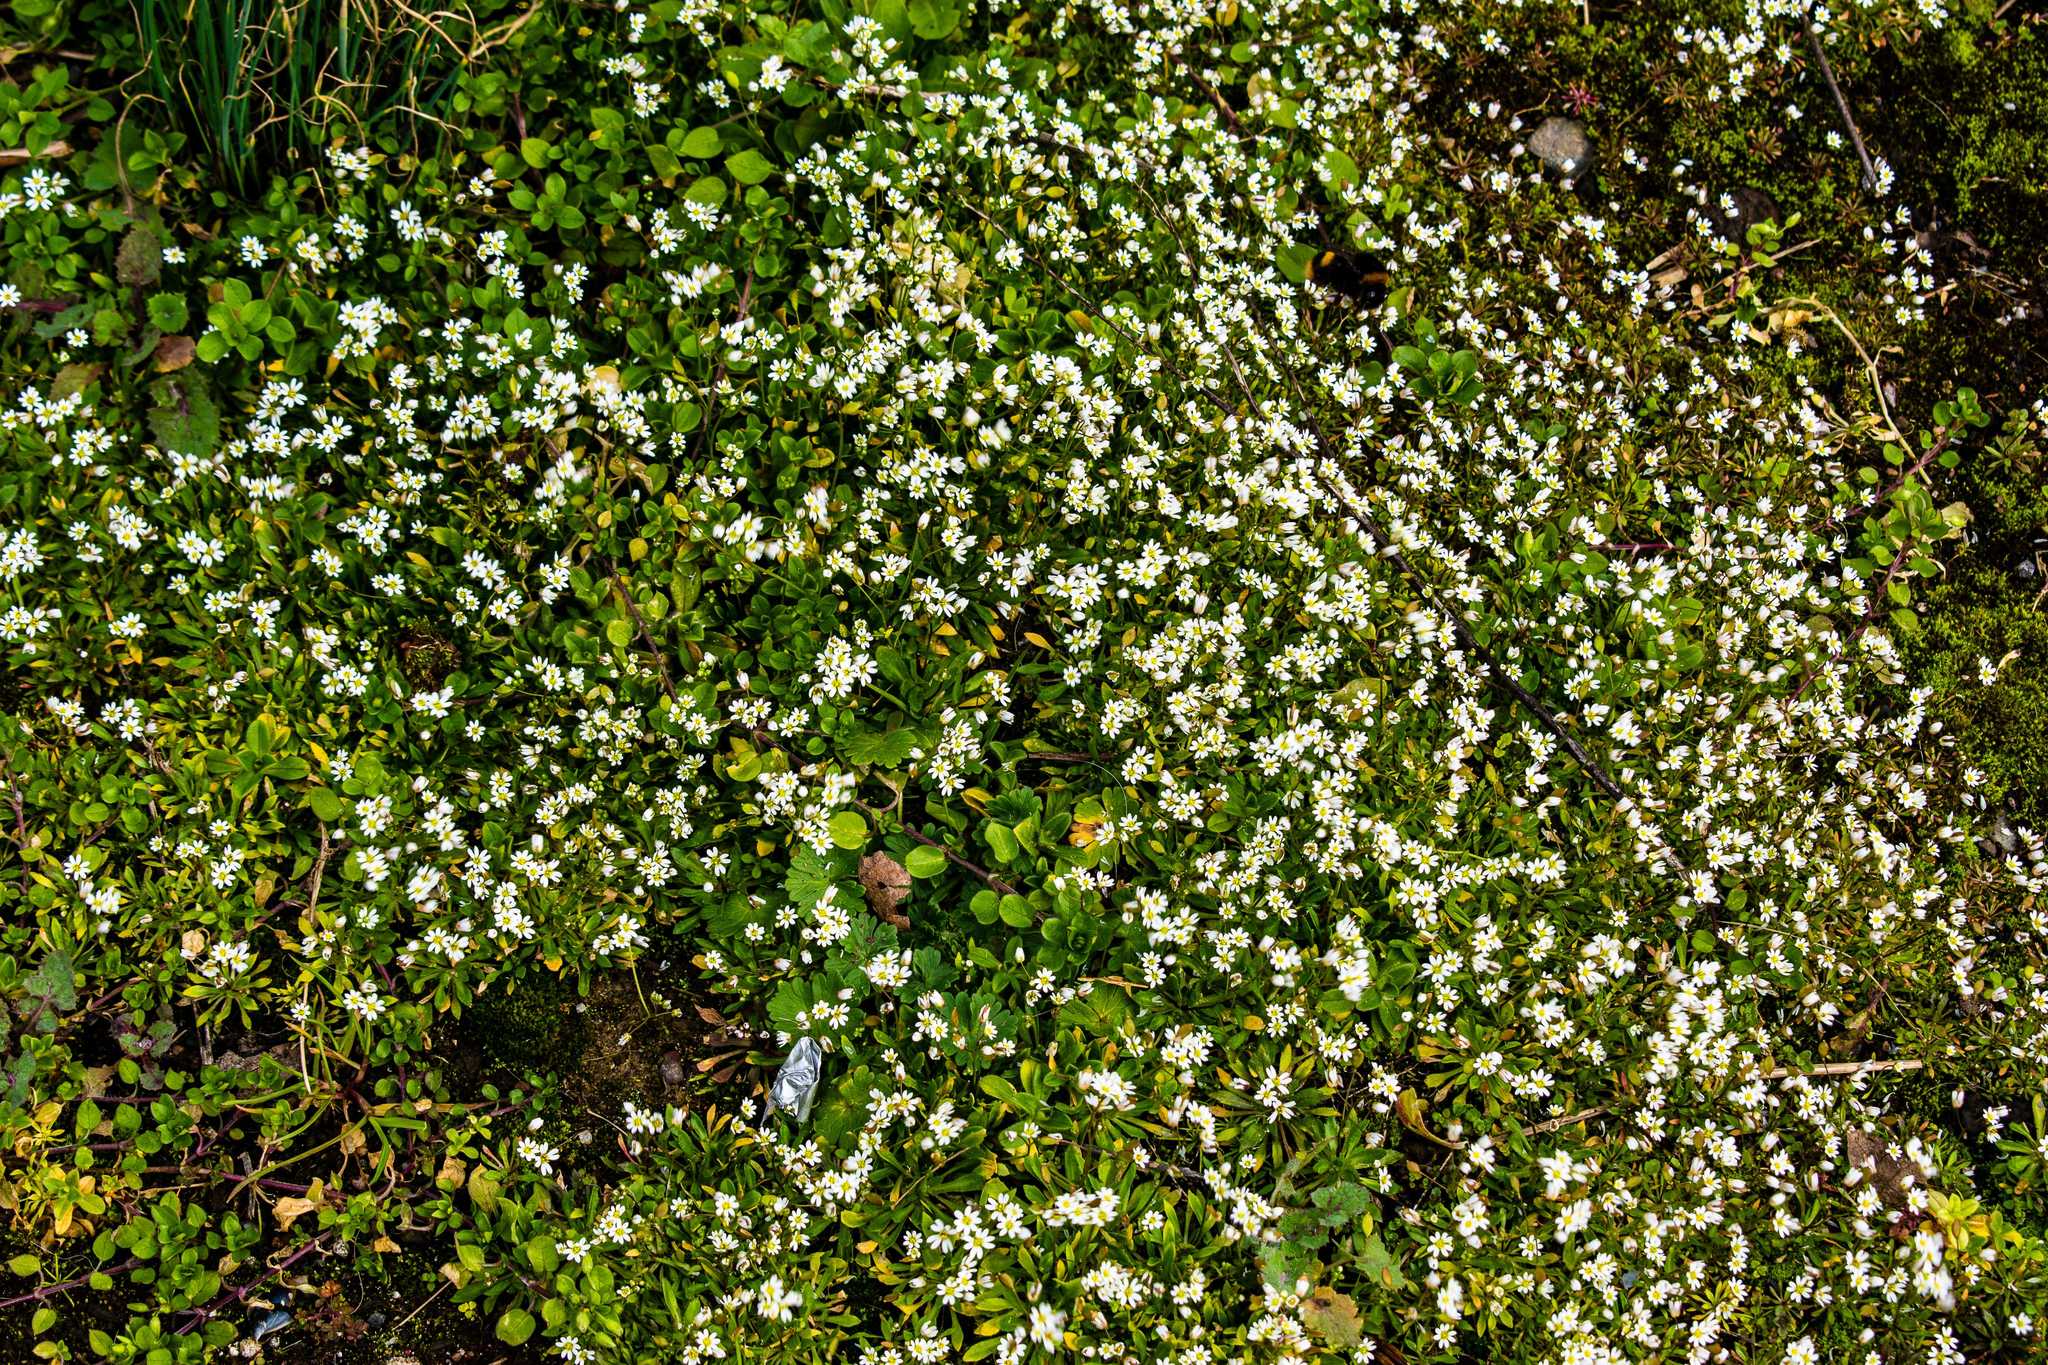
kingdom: Plantae
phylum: Tracheophyta
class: Magnoliopsida
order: Brassicales
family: Brassicaceae
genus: Draba
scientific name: Draba verna
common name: Spring draba
